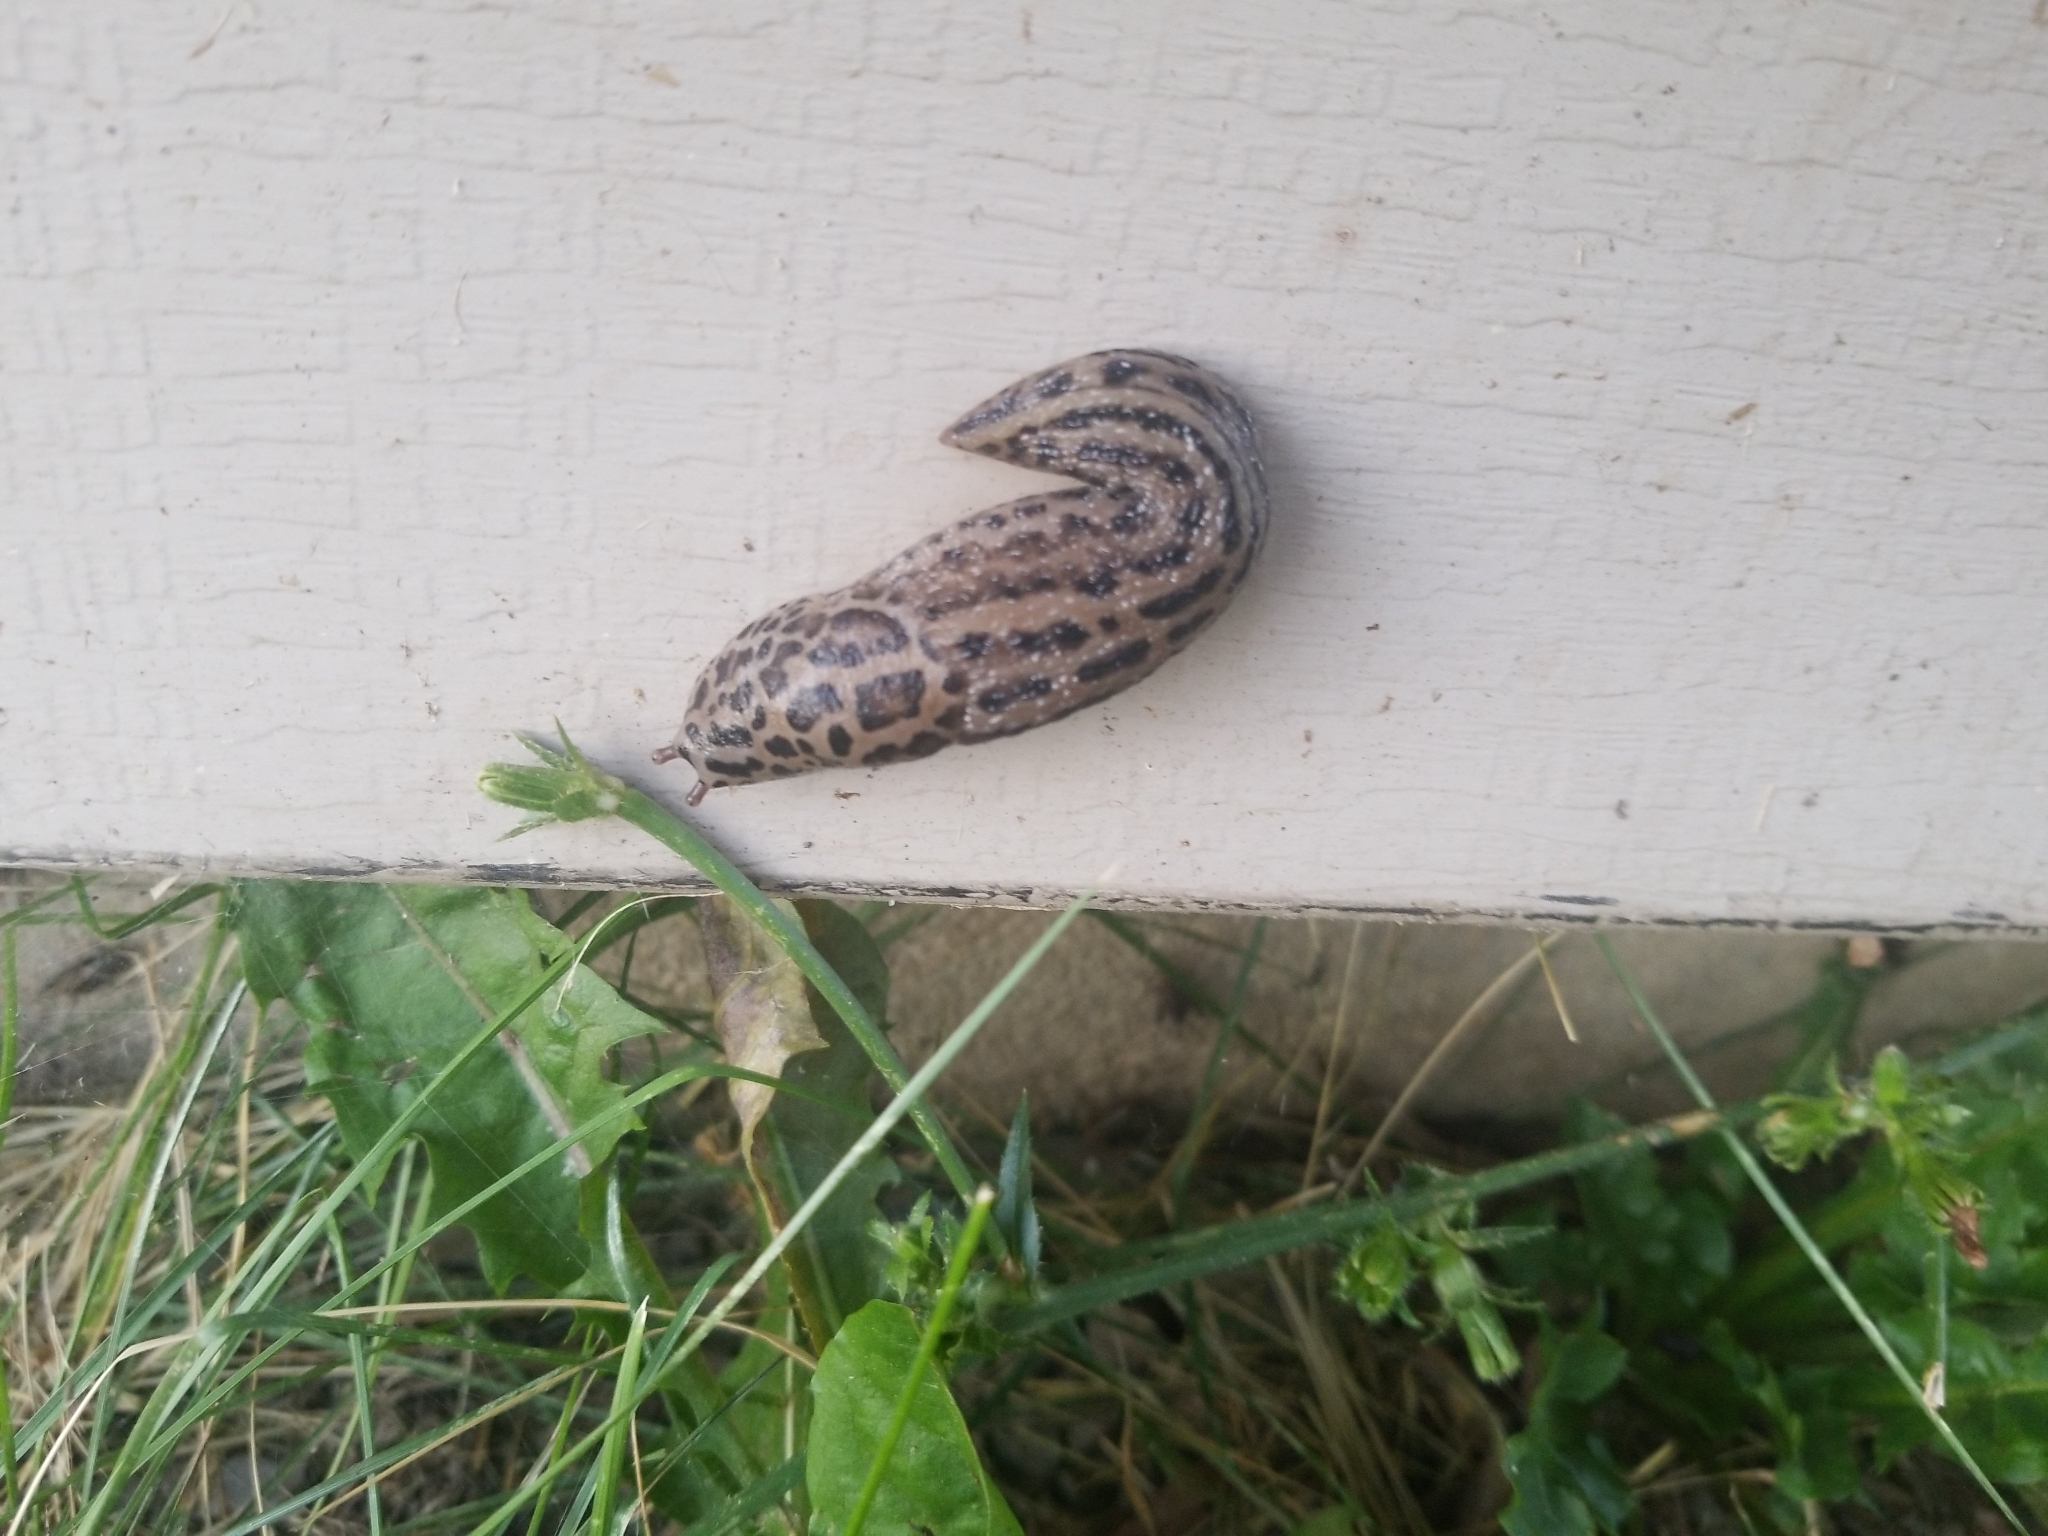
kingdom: Animalia
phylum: Mollusca
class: Gastropoda
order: Stylommatophora
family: Limacidae
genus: Limax
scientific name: Limax maximus
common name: Great grey slug
